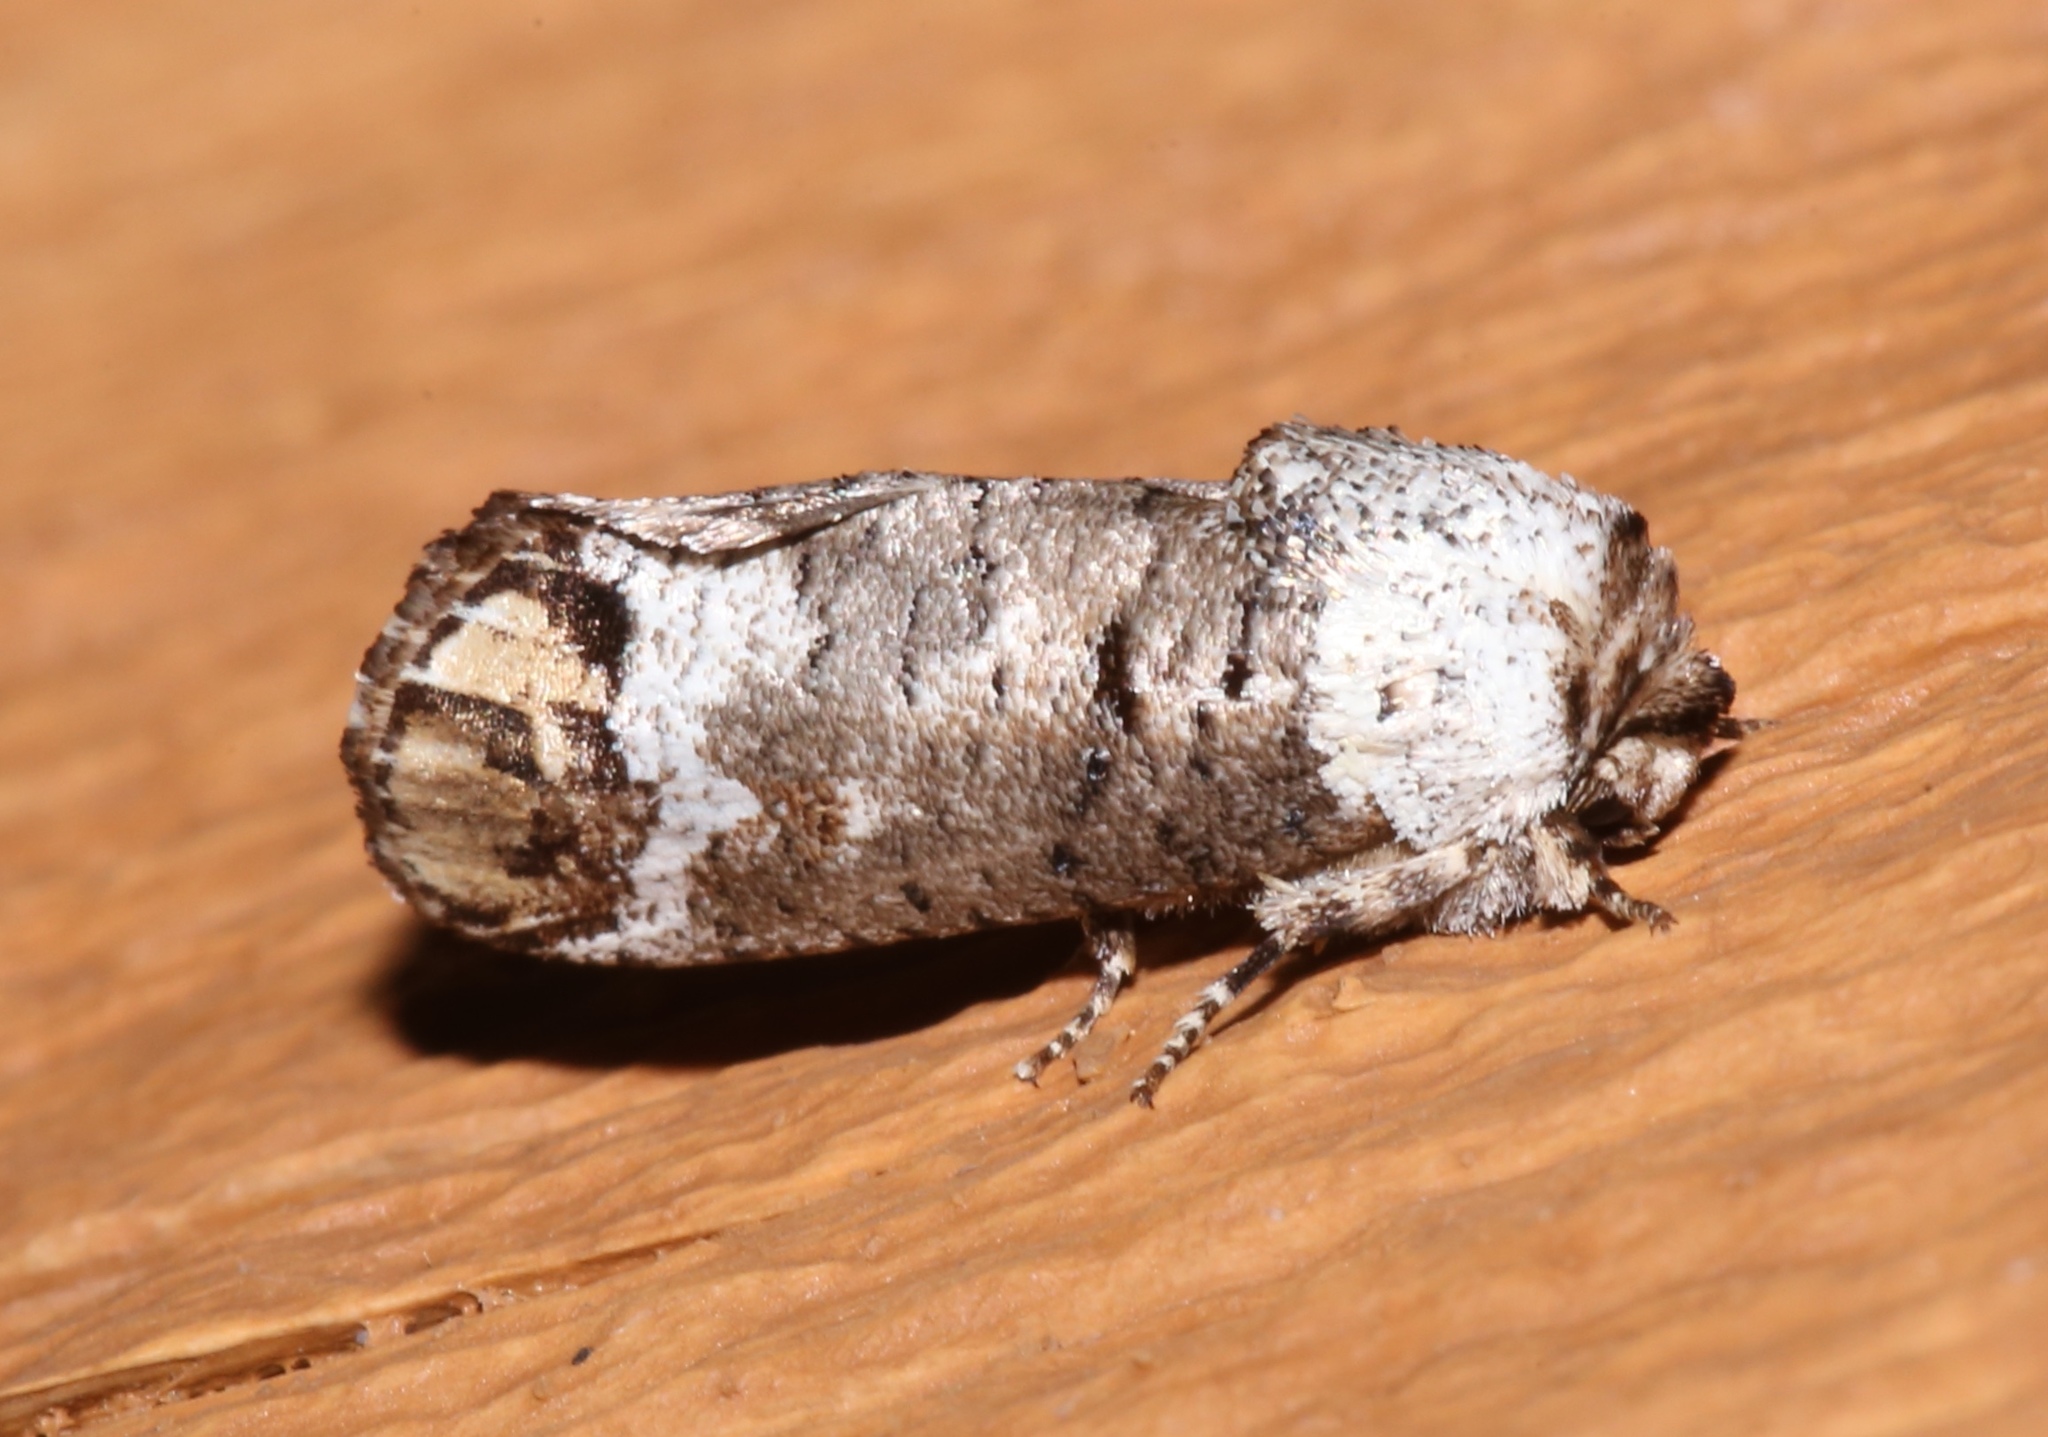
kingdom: Animalia
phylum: Arthropoda
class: Insecta
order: Lepidoptera
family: Cossidae
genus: Cossula
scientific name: Cossula magnifica
